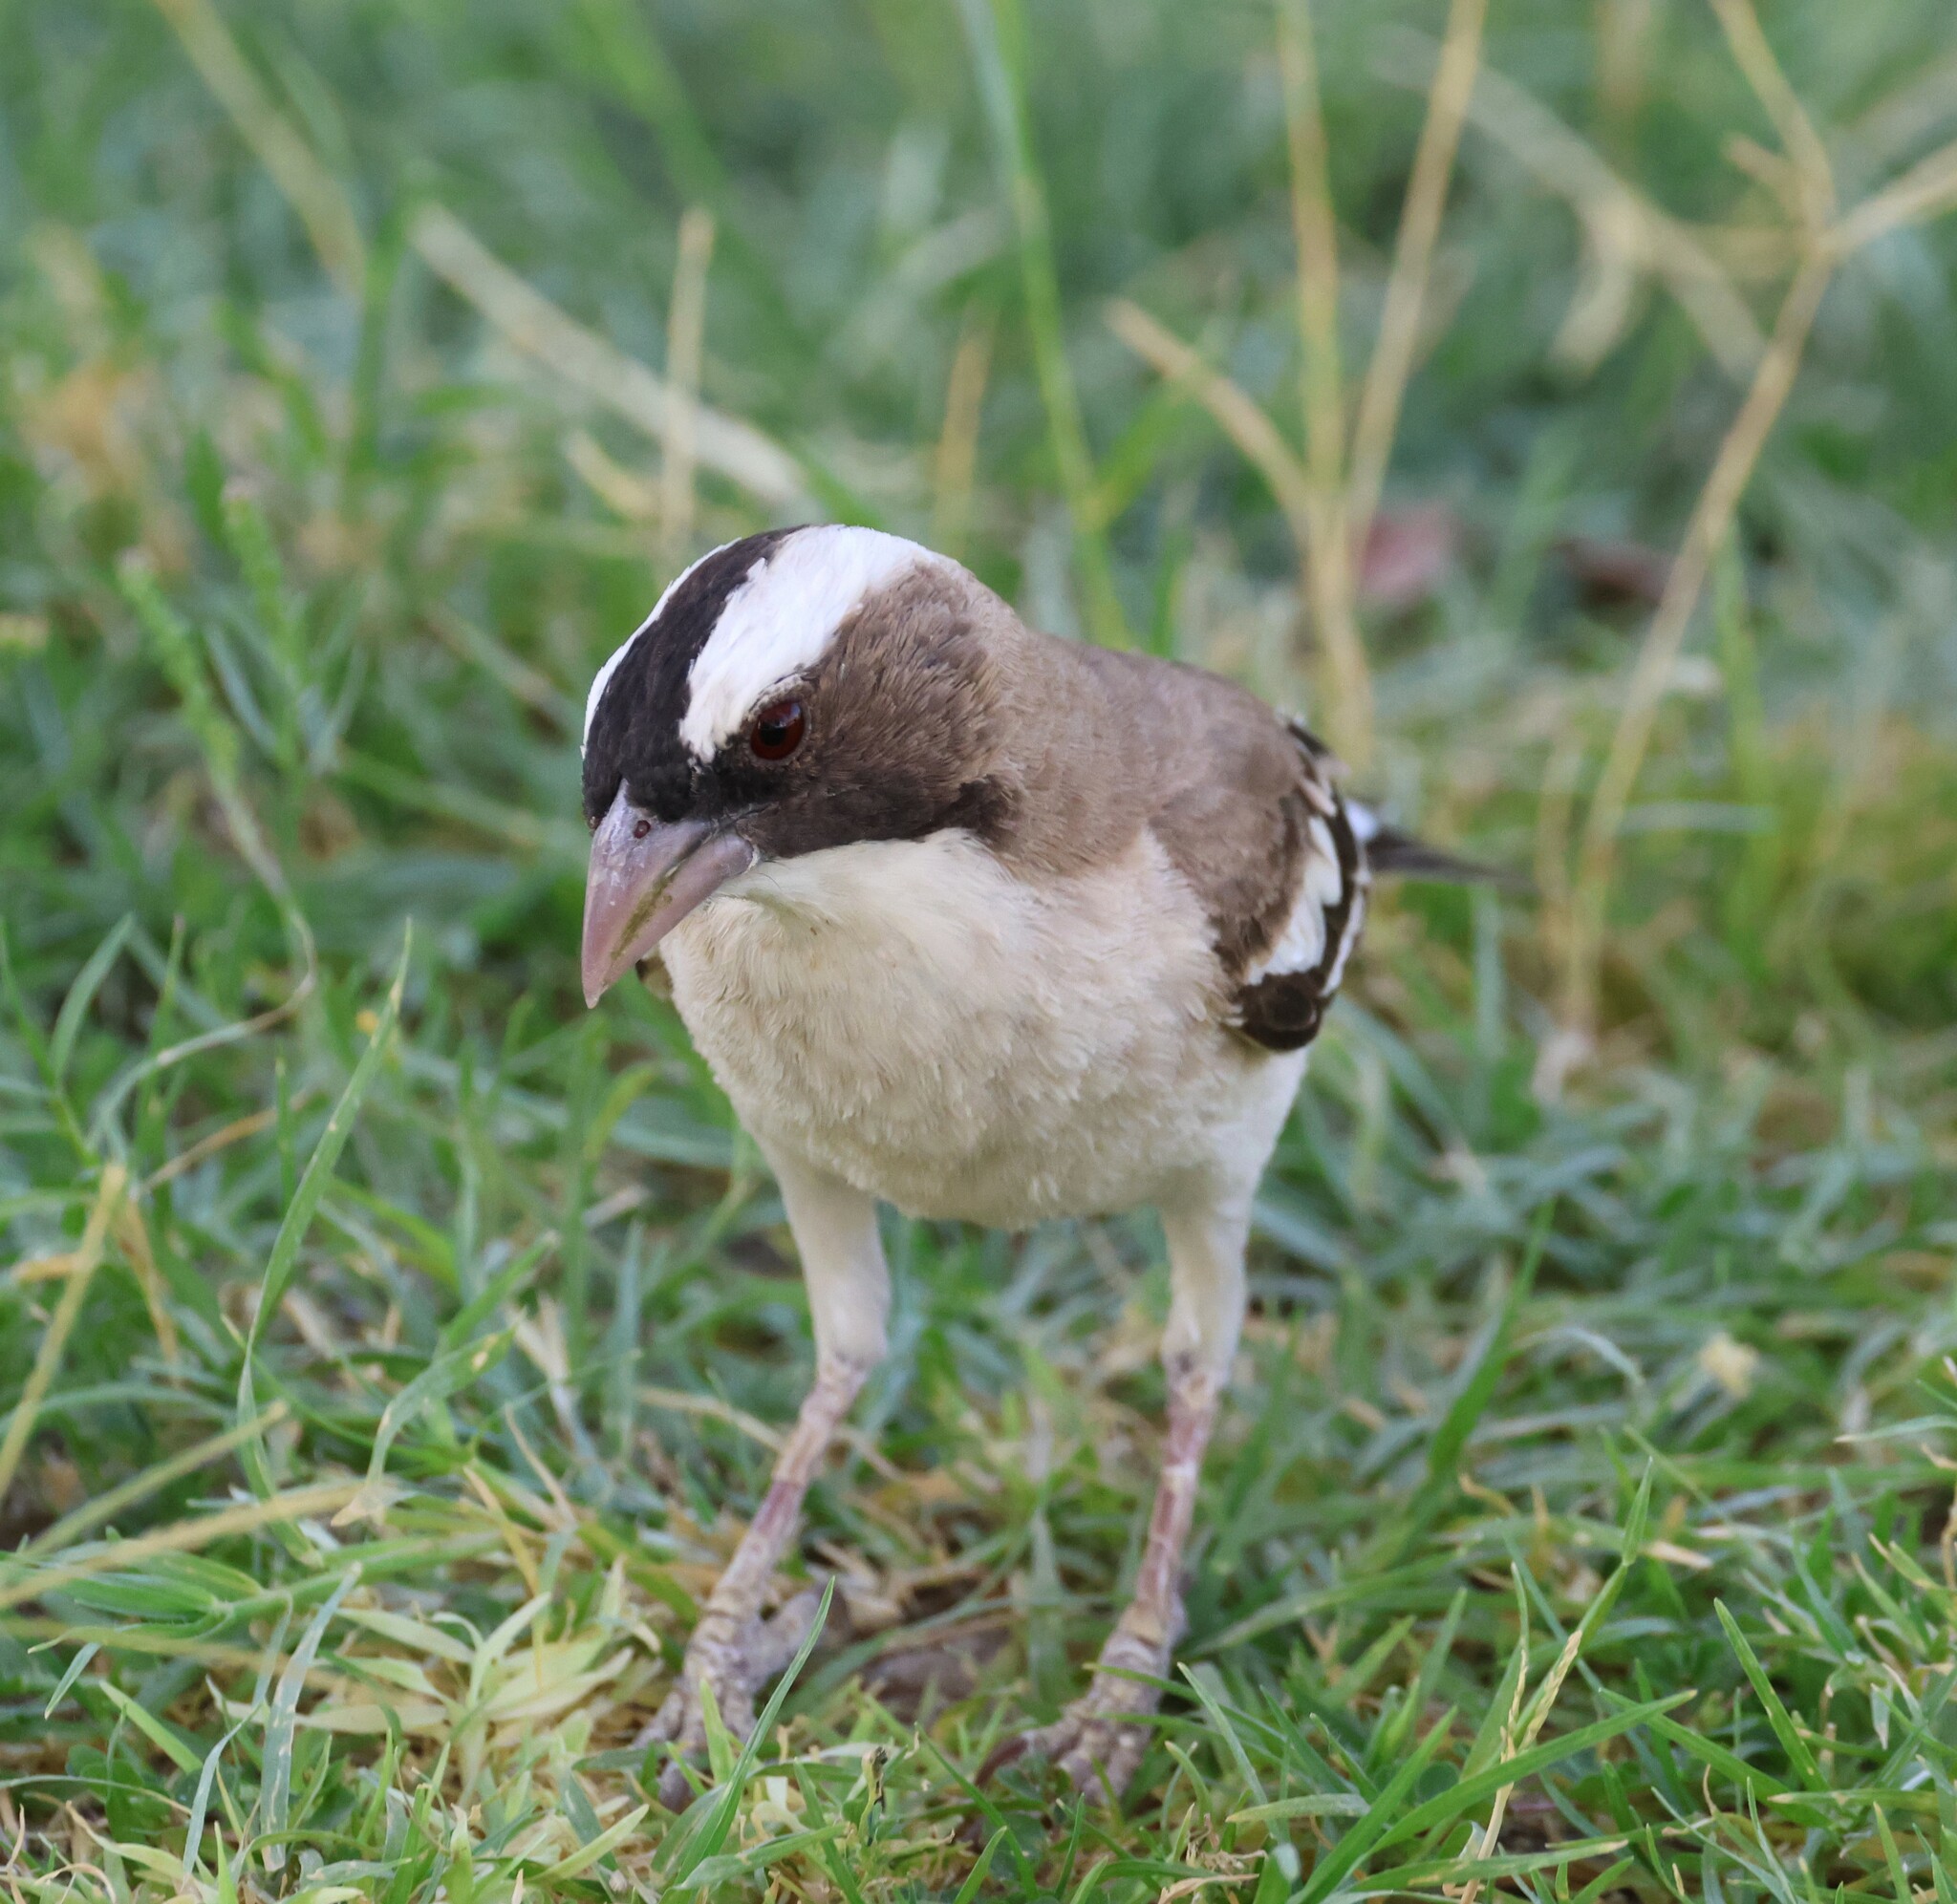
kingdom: Animalia
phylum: Chordata
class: Aves
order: Passeriformes
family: Passeridae
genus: Plocepasser
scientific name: Plocepasser mahali
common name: White-browed sparrow-weaver
